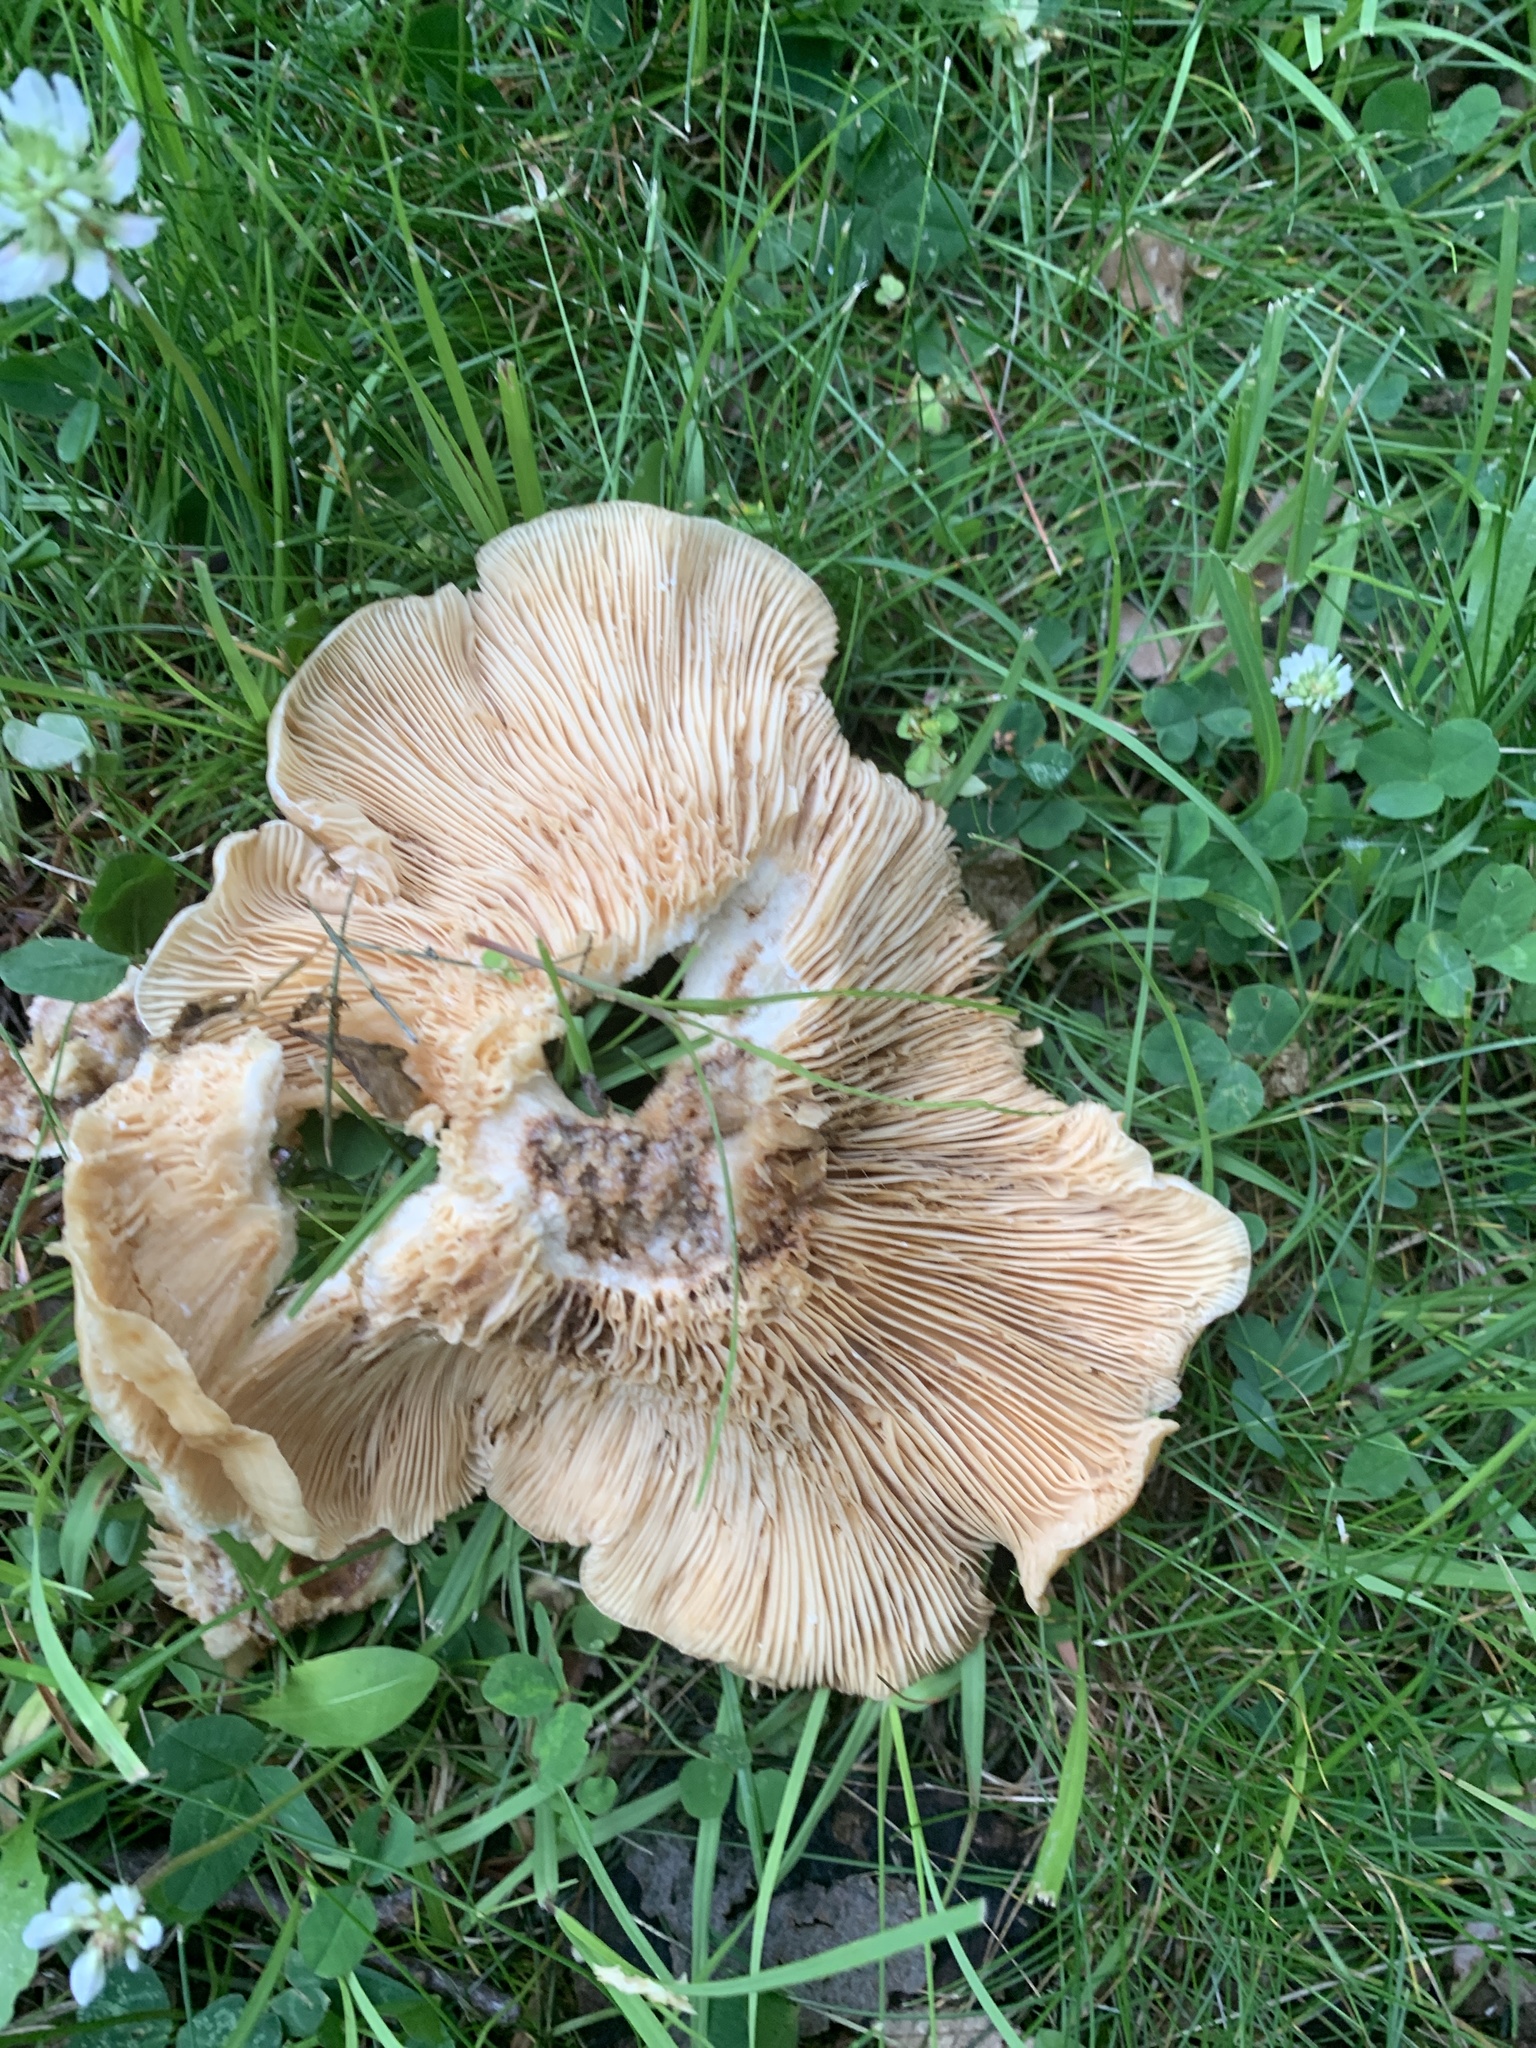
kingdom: Fungi
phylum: Basidiomycota
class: Agaricomycetes
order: Russulales
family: Russulaceae
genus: Lactarius
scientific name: Lactarius psammicola
